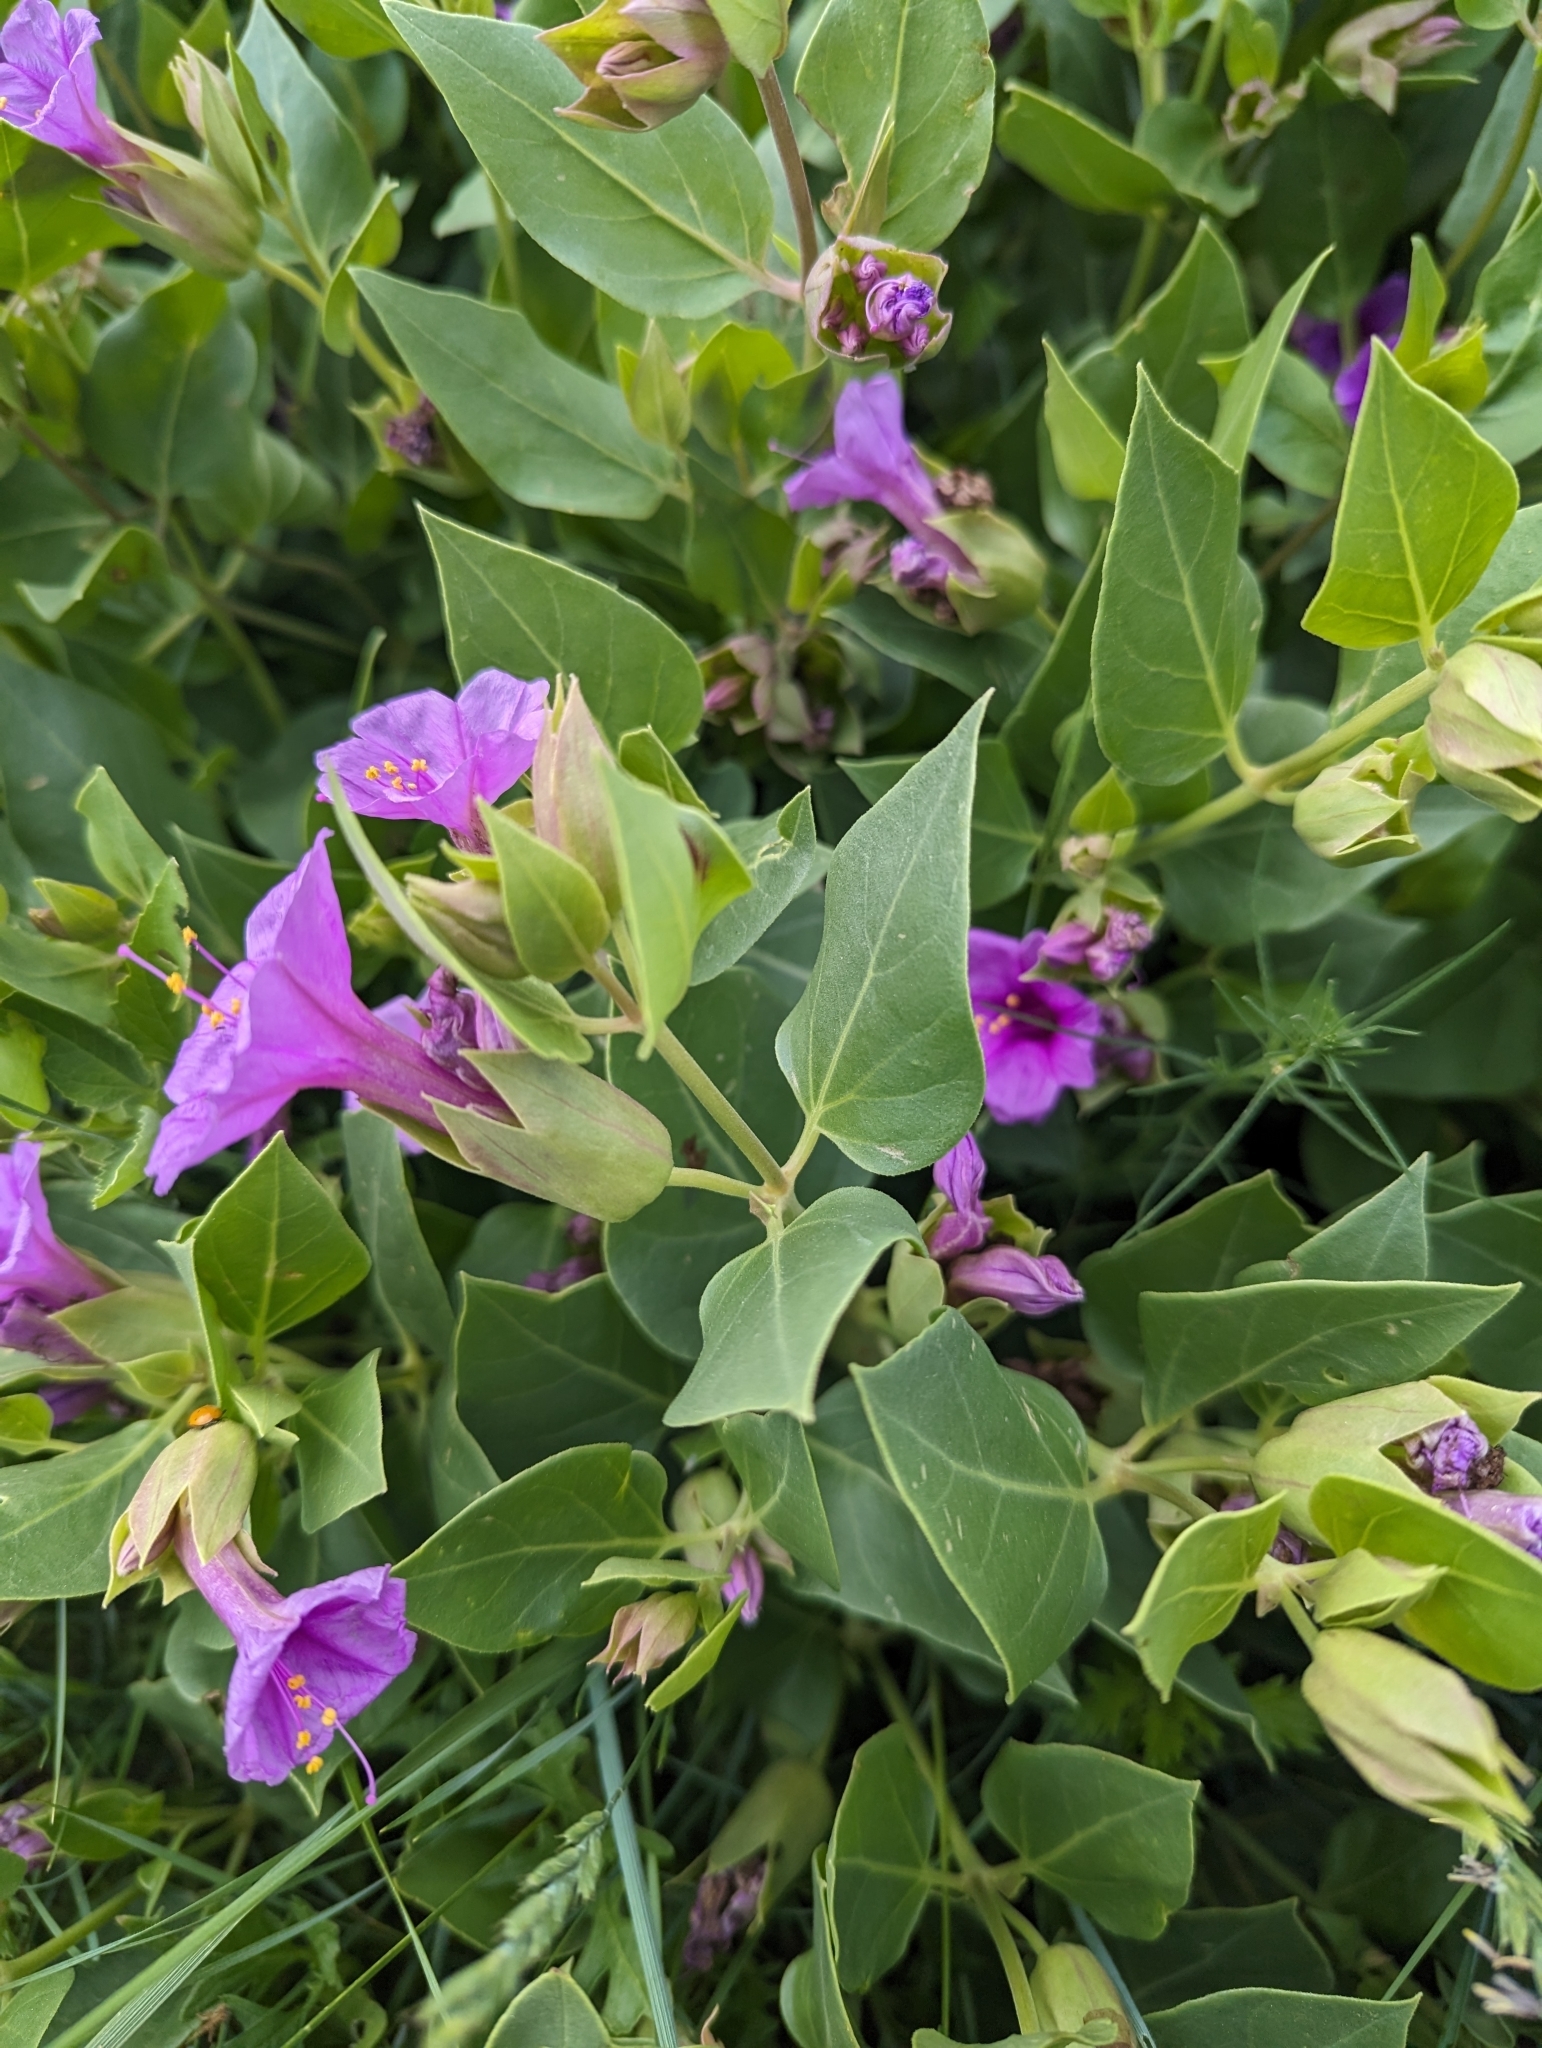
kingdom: Plantae
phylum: Tracheophyta
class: Magnoliopsida
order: Caryophyllales
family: Nyctaginaceae
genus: Mirabilis
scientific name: Mirabilis multiflora
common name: Froebel's four-o'clock
